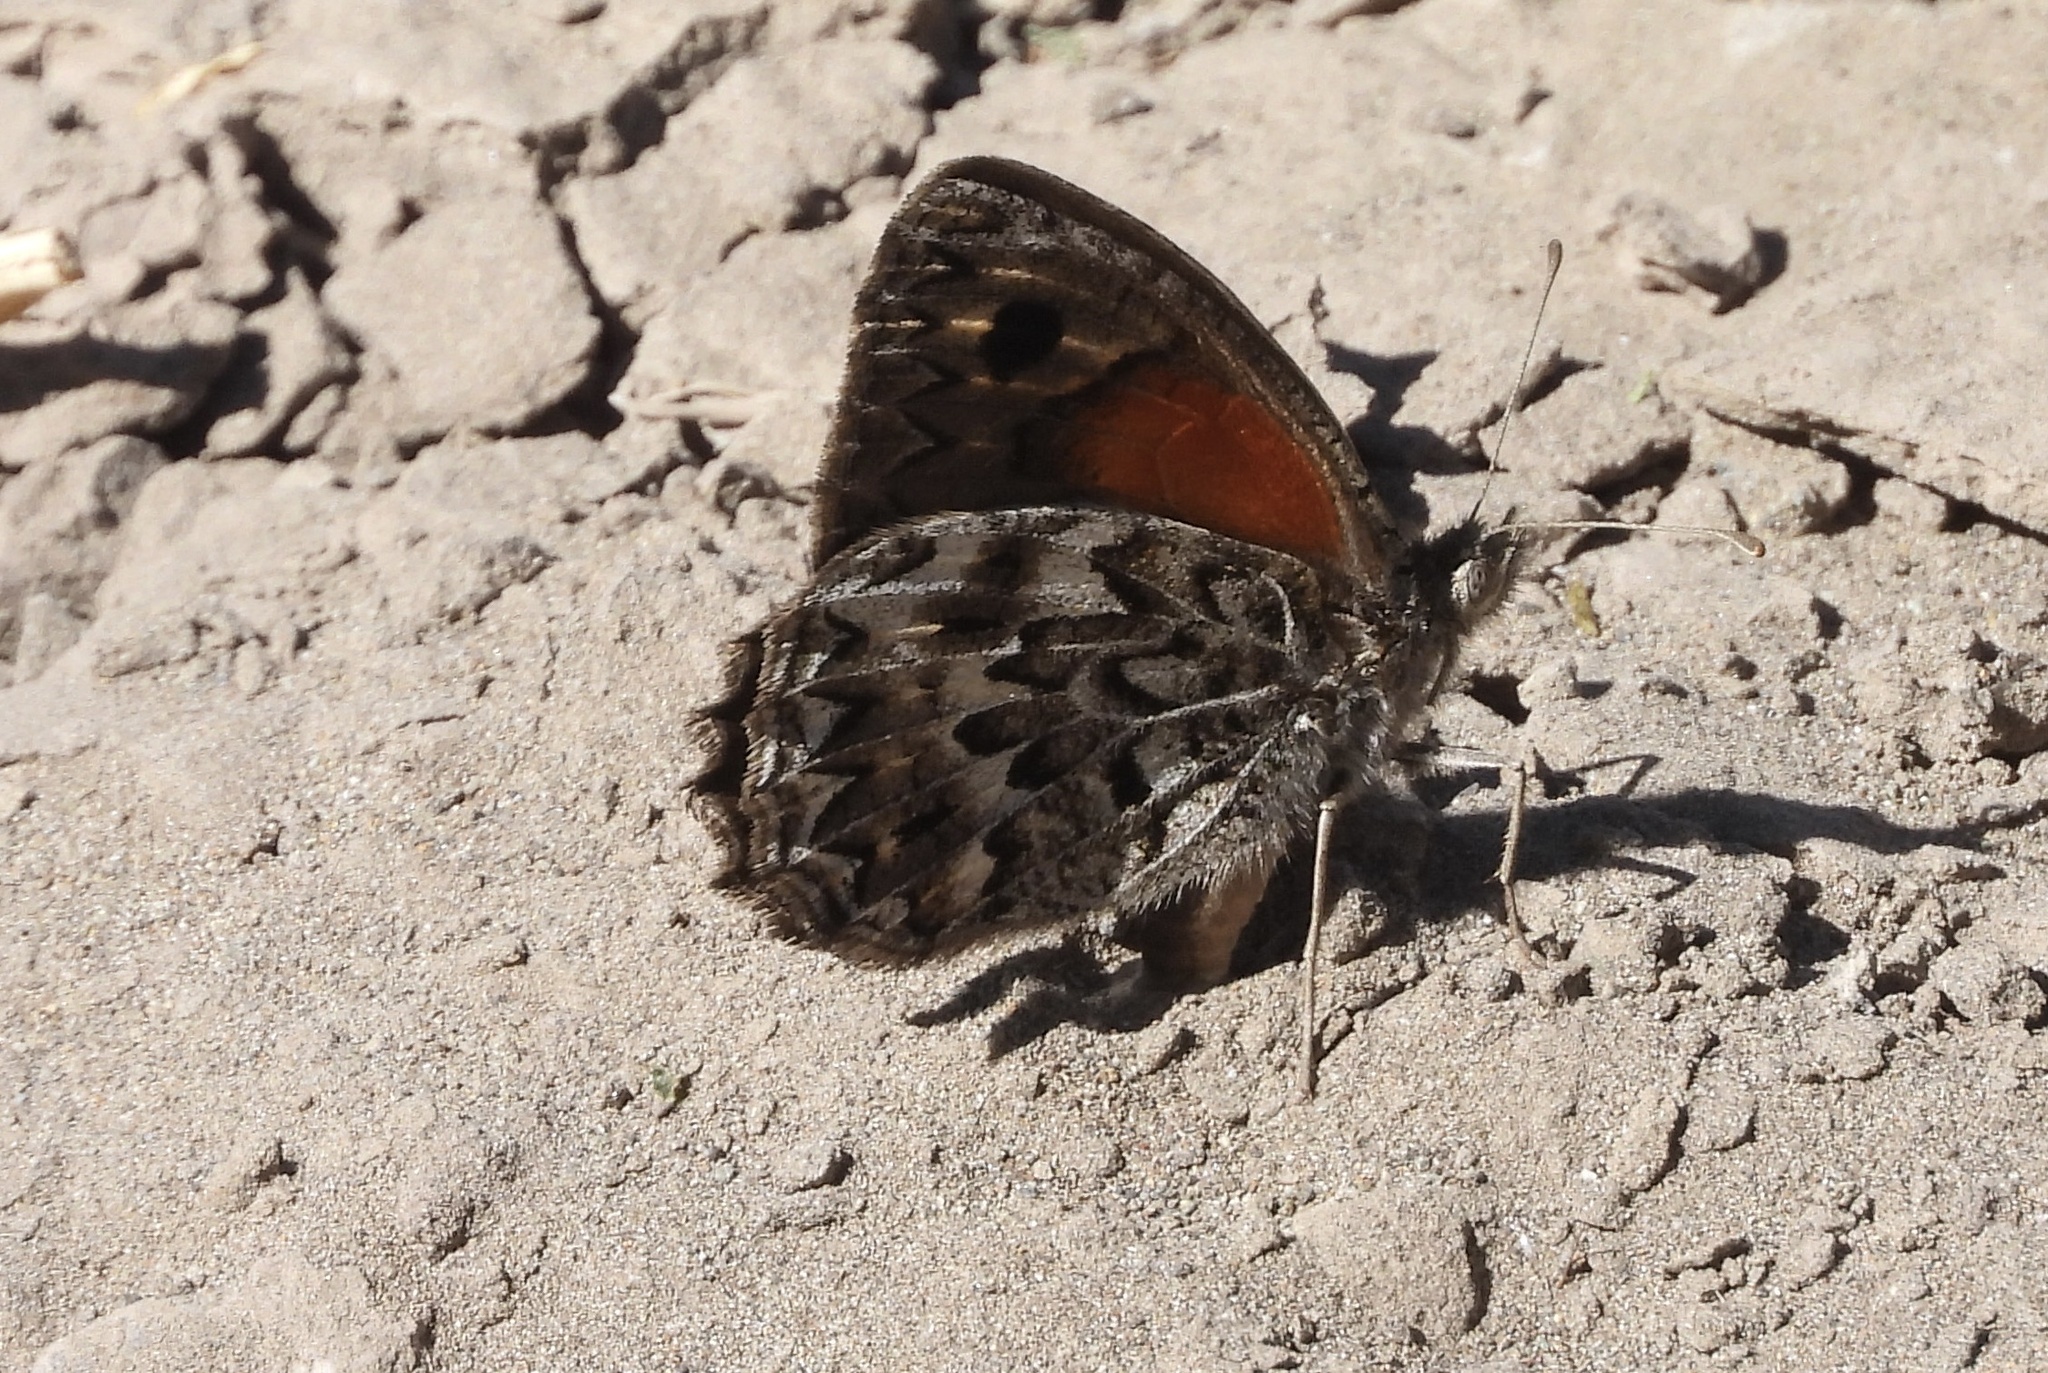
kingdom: Animalia
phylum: Arthropoda
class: Insecta
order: Lepidoptera
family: Nymphalidae
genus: Argyrophorus
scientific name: Argyrophorus
